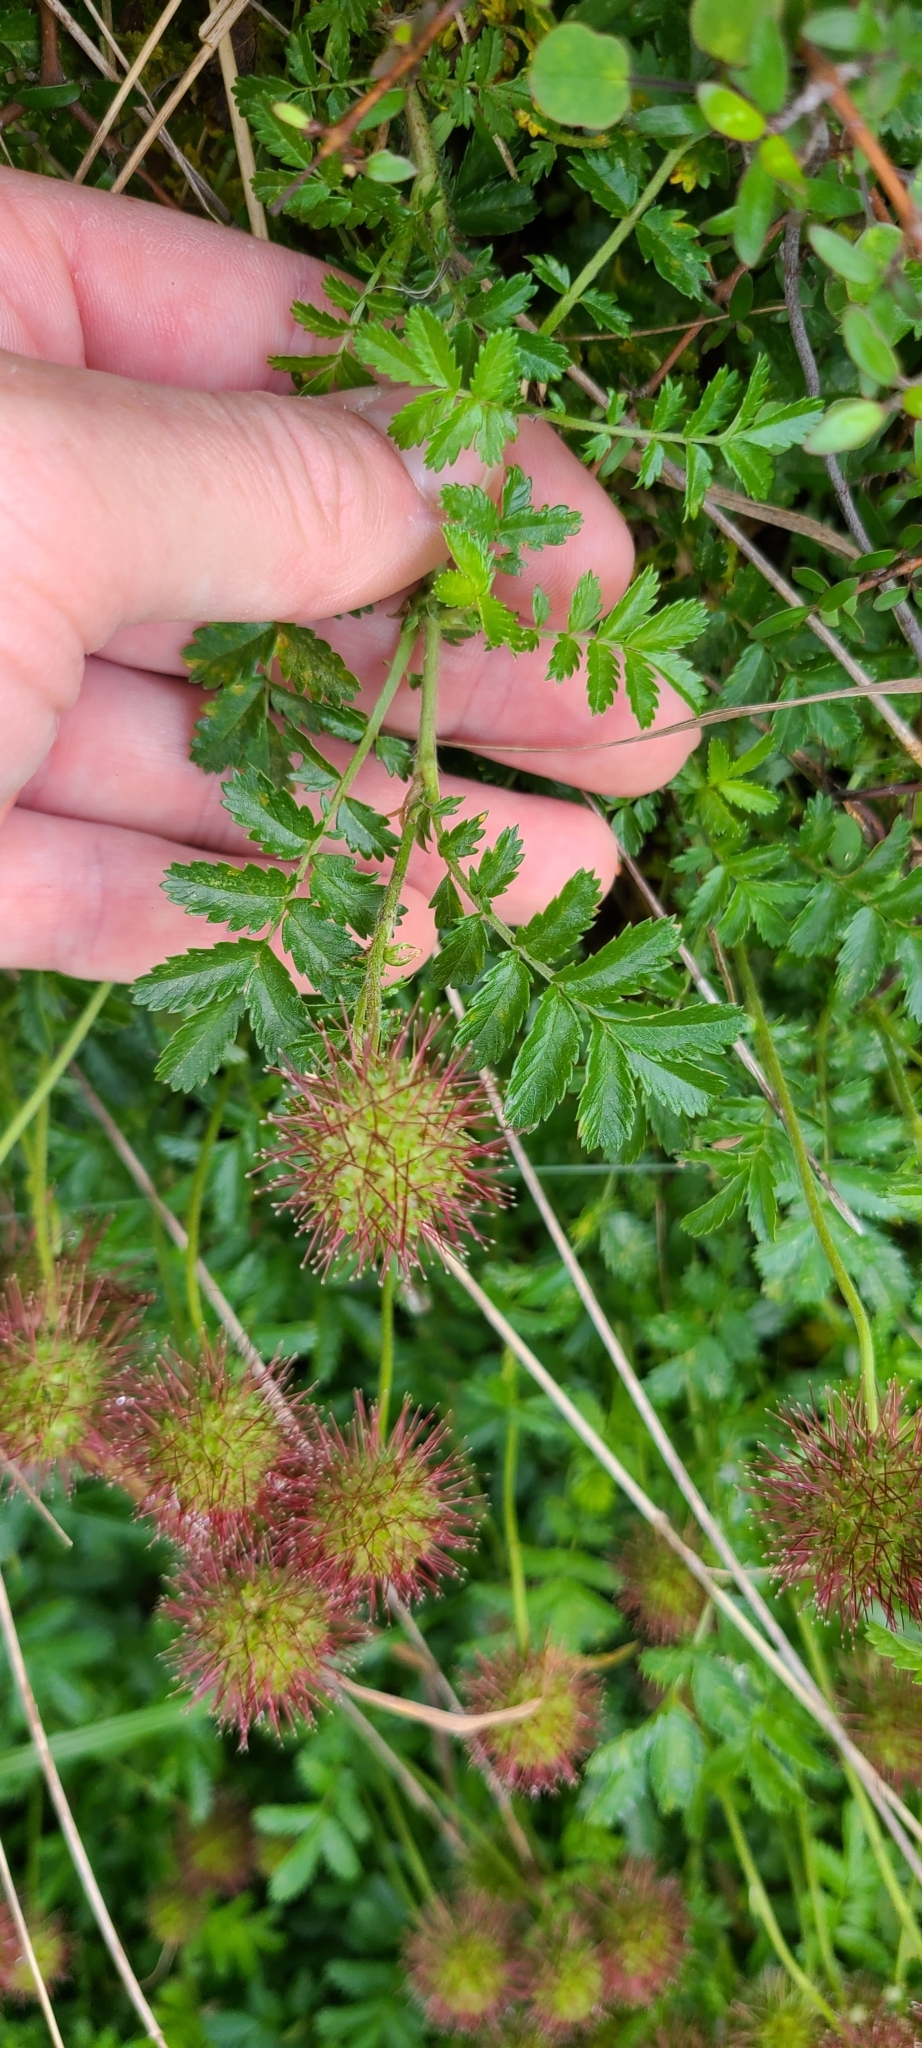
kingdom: Plantae
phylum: Tracheophyta
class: Magnoliopsida
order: Rosales
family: Rosaceae
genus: Acaena
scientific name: Acaena novae-zelandiae
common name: Pirri-pirri-bur
